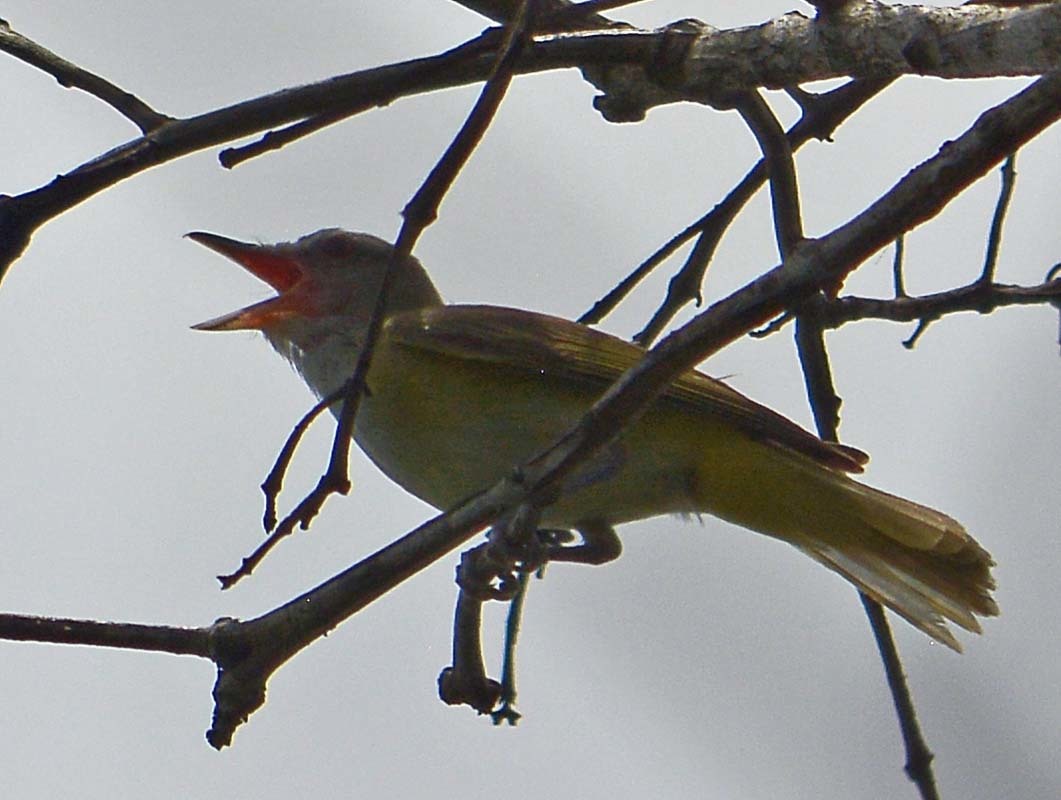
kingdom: Animalia
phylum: Chordata
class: Aves
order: Passeriformes
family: Vireonidae
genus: Vireo
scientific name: Vireo flavoviridis
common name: Yellow-green vireo
